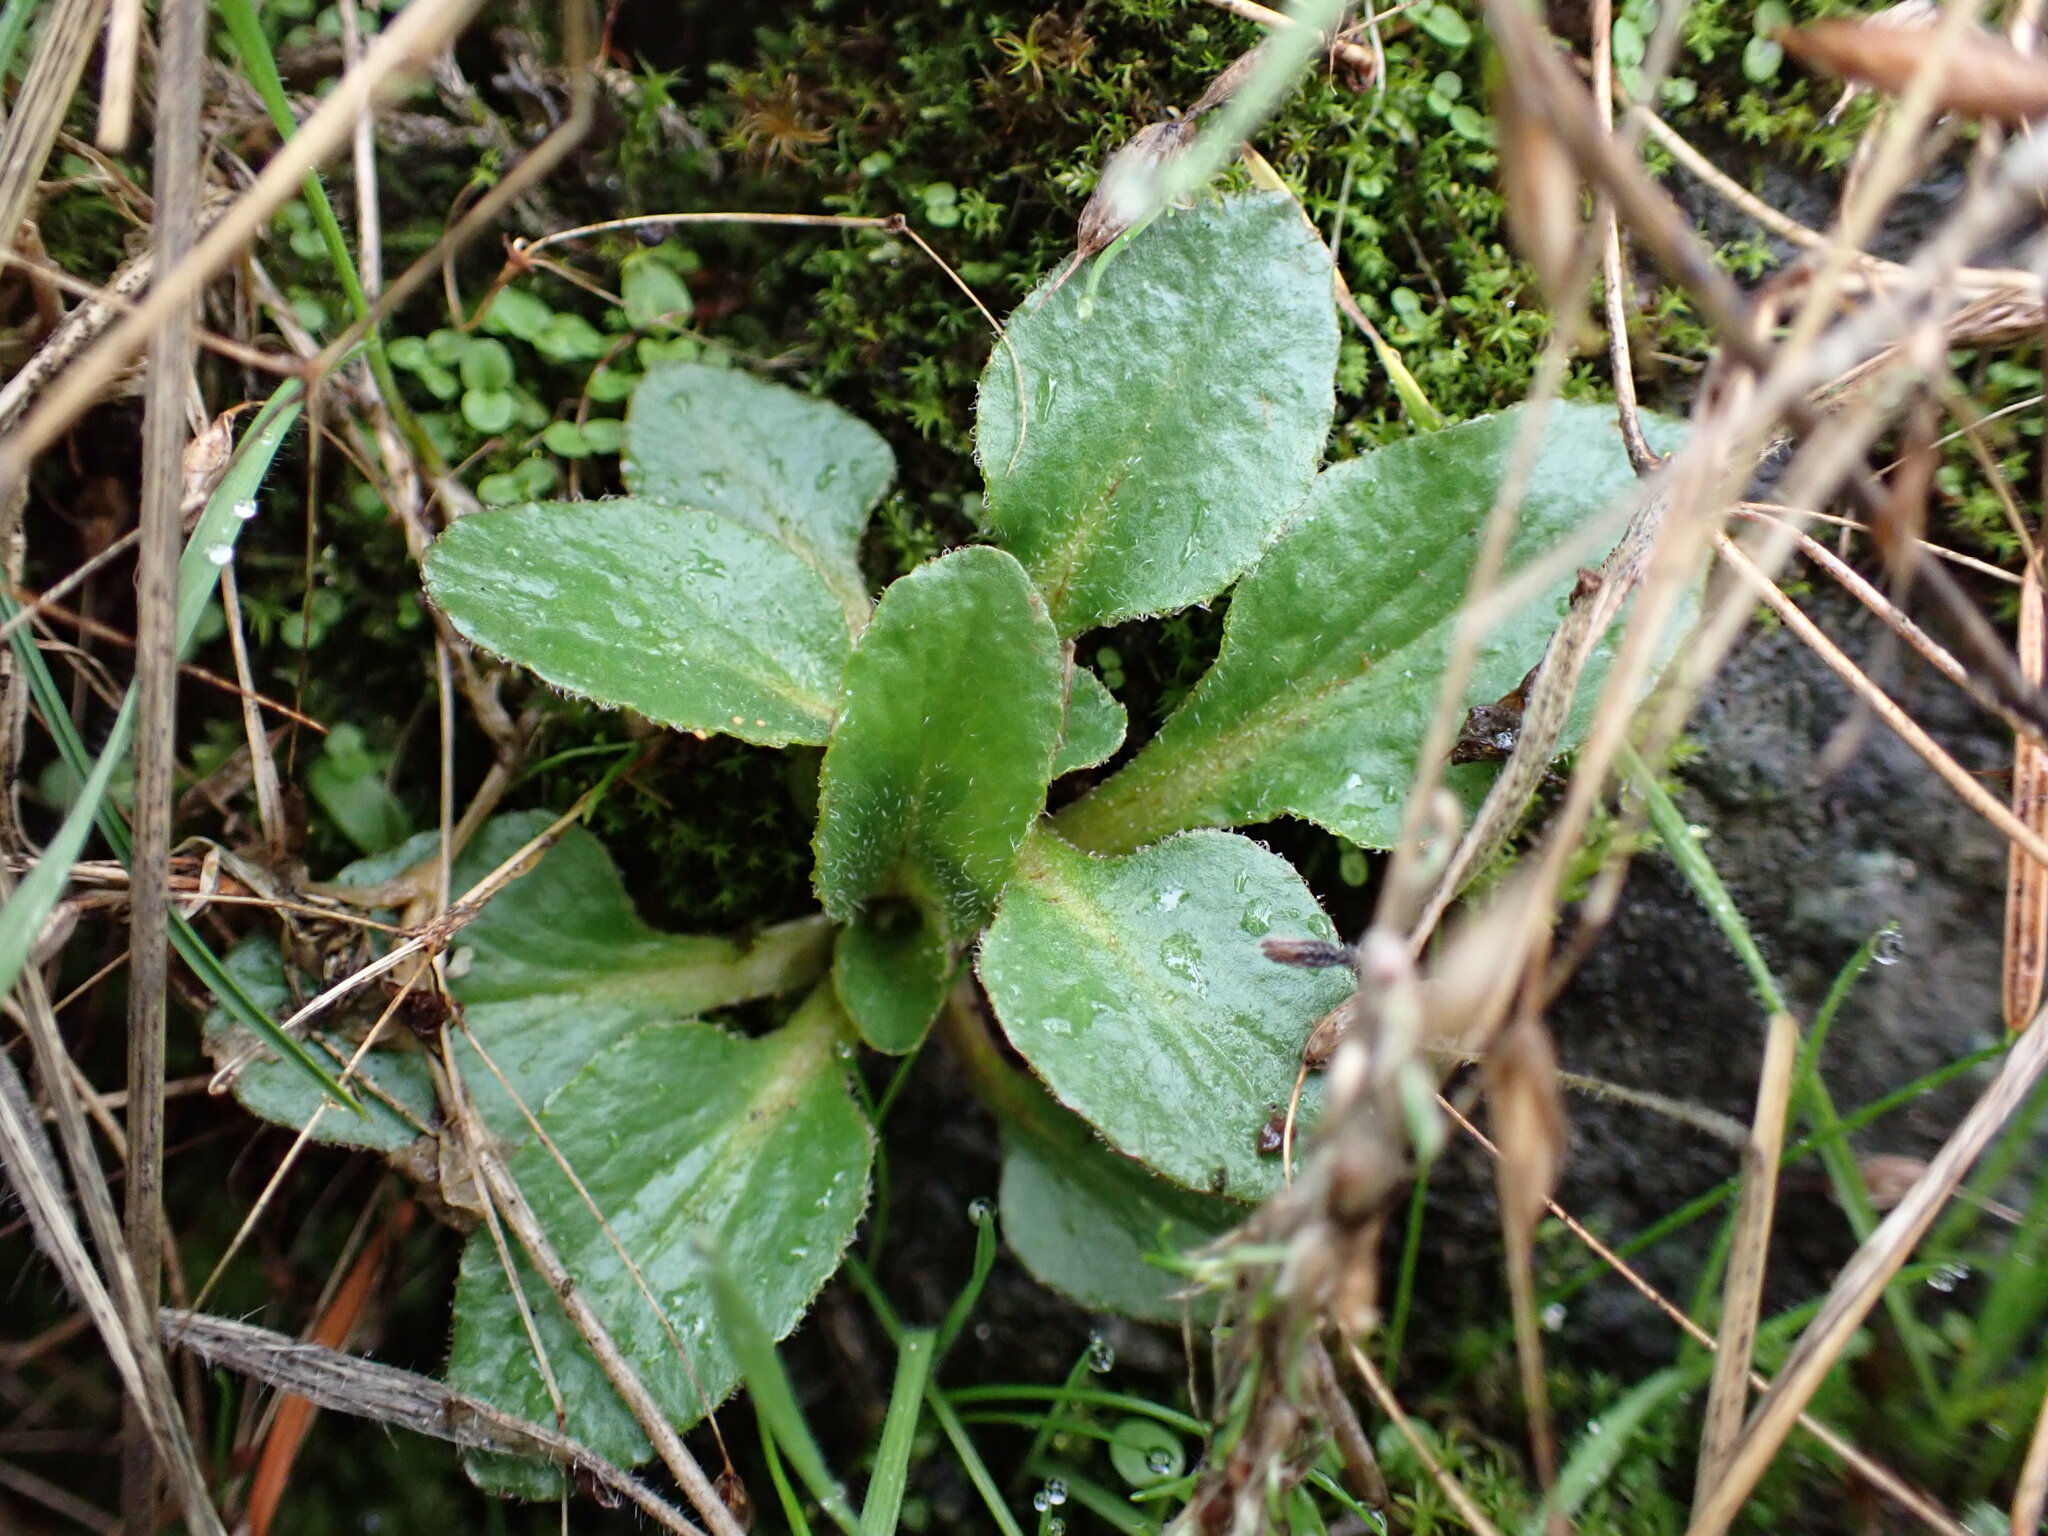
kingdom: Plantae
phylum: Tracheophyta
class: Magnoliopsida
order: Saxifragales
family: Saxifragaceae
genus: Micranthes
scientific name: Micranthes integrifolia
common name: Wholeleaf saxifrage
